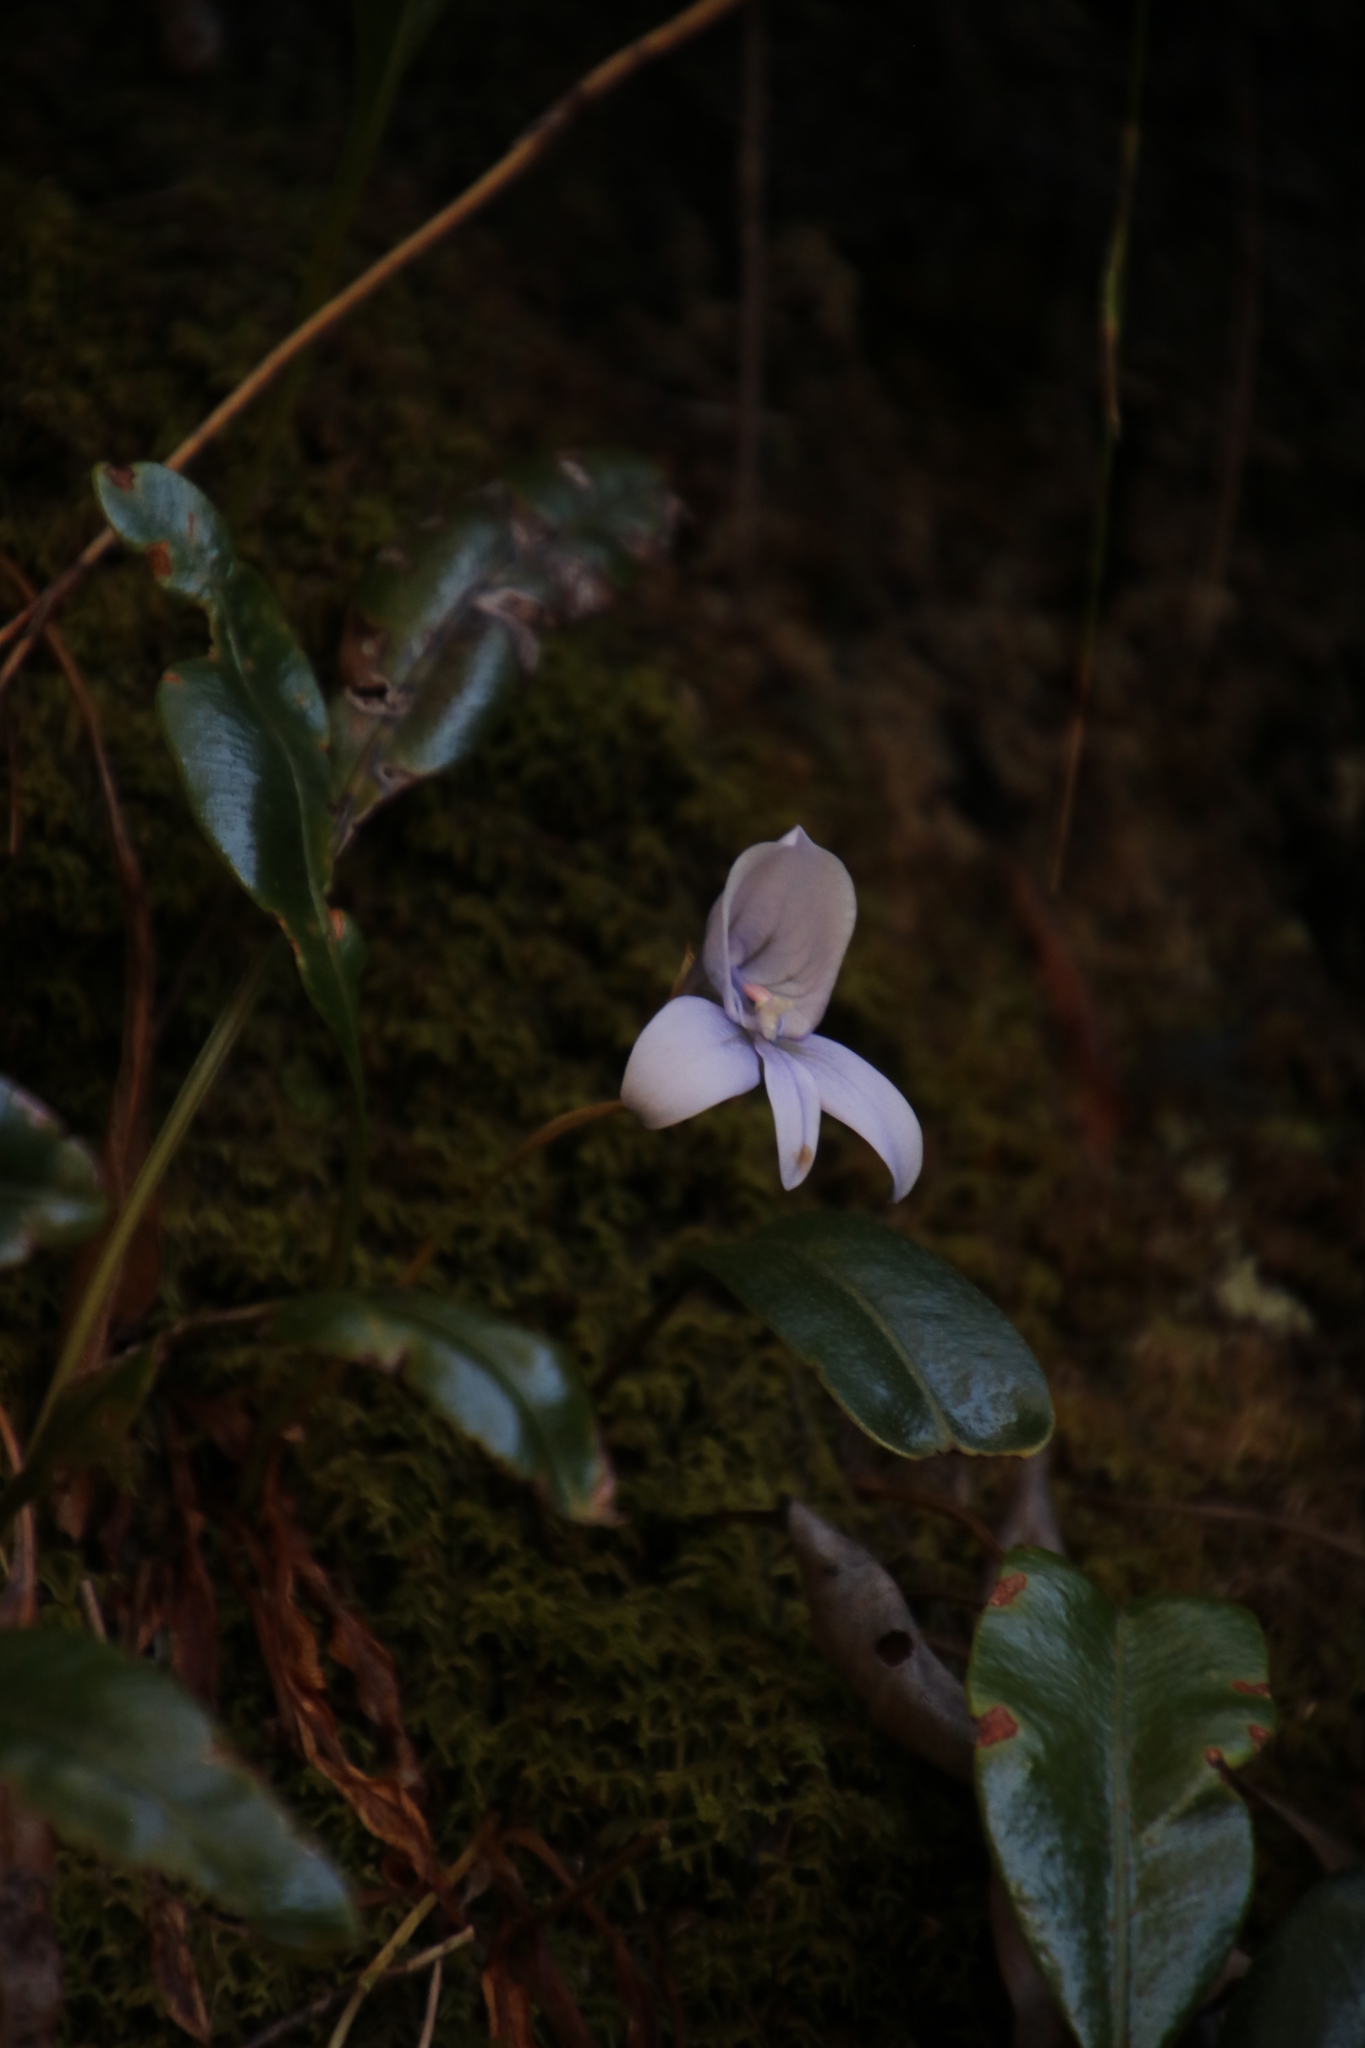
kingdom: Plantae
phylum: Tracheophyta
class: Liliopsida
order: Asparagales
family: Orchidaceae
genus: Disa
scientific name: Disa longicornu
